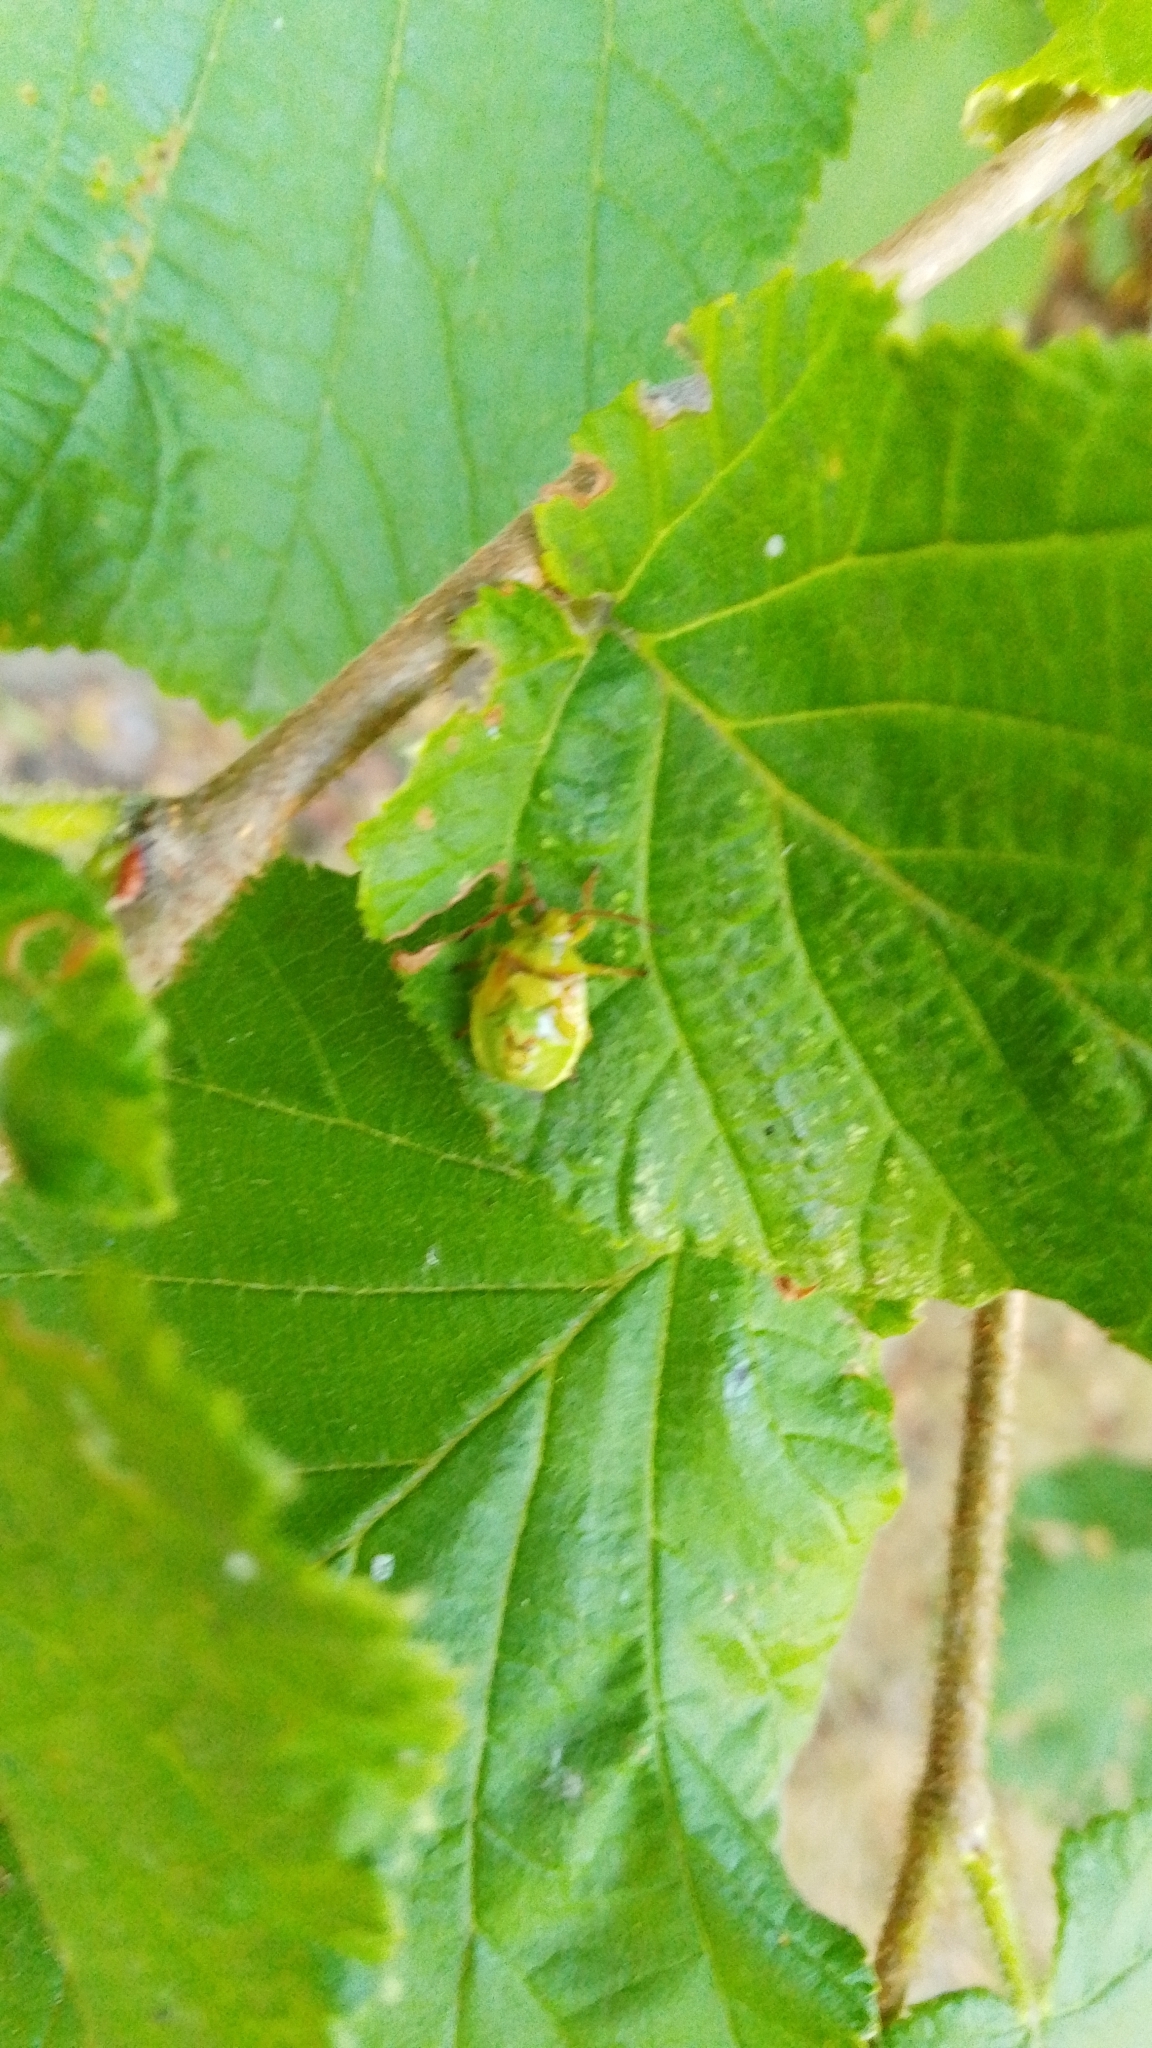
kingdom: Animalia
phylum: Arthropoda
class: Insecta
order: Hemiptera
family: Acanthosomatidae
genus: Elasmostethus
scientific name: Elasmostethus interstinctus
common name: Birch shieldbug
